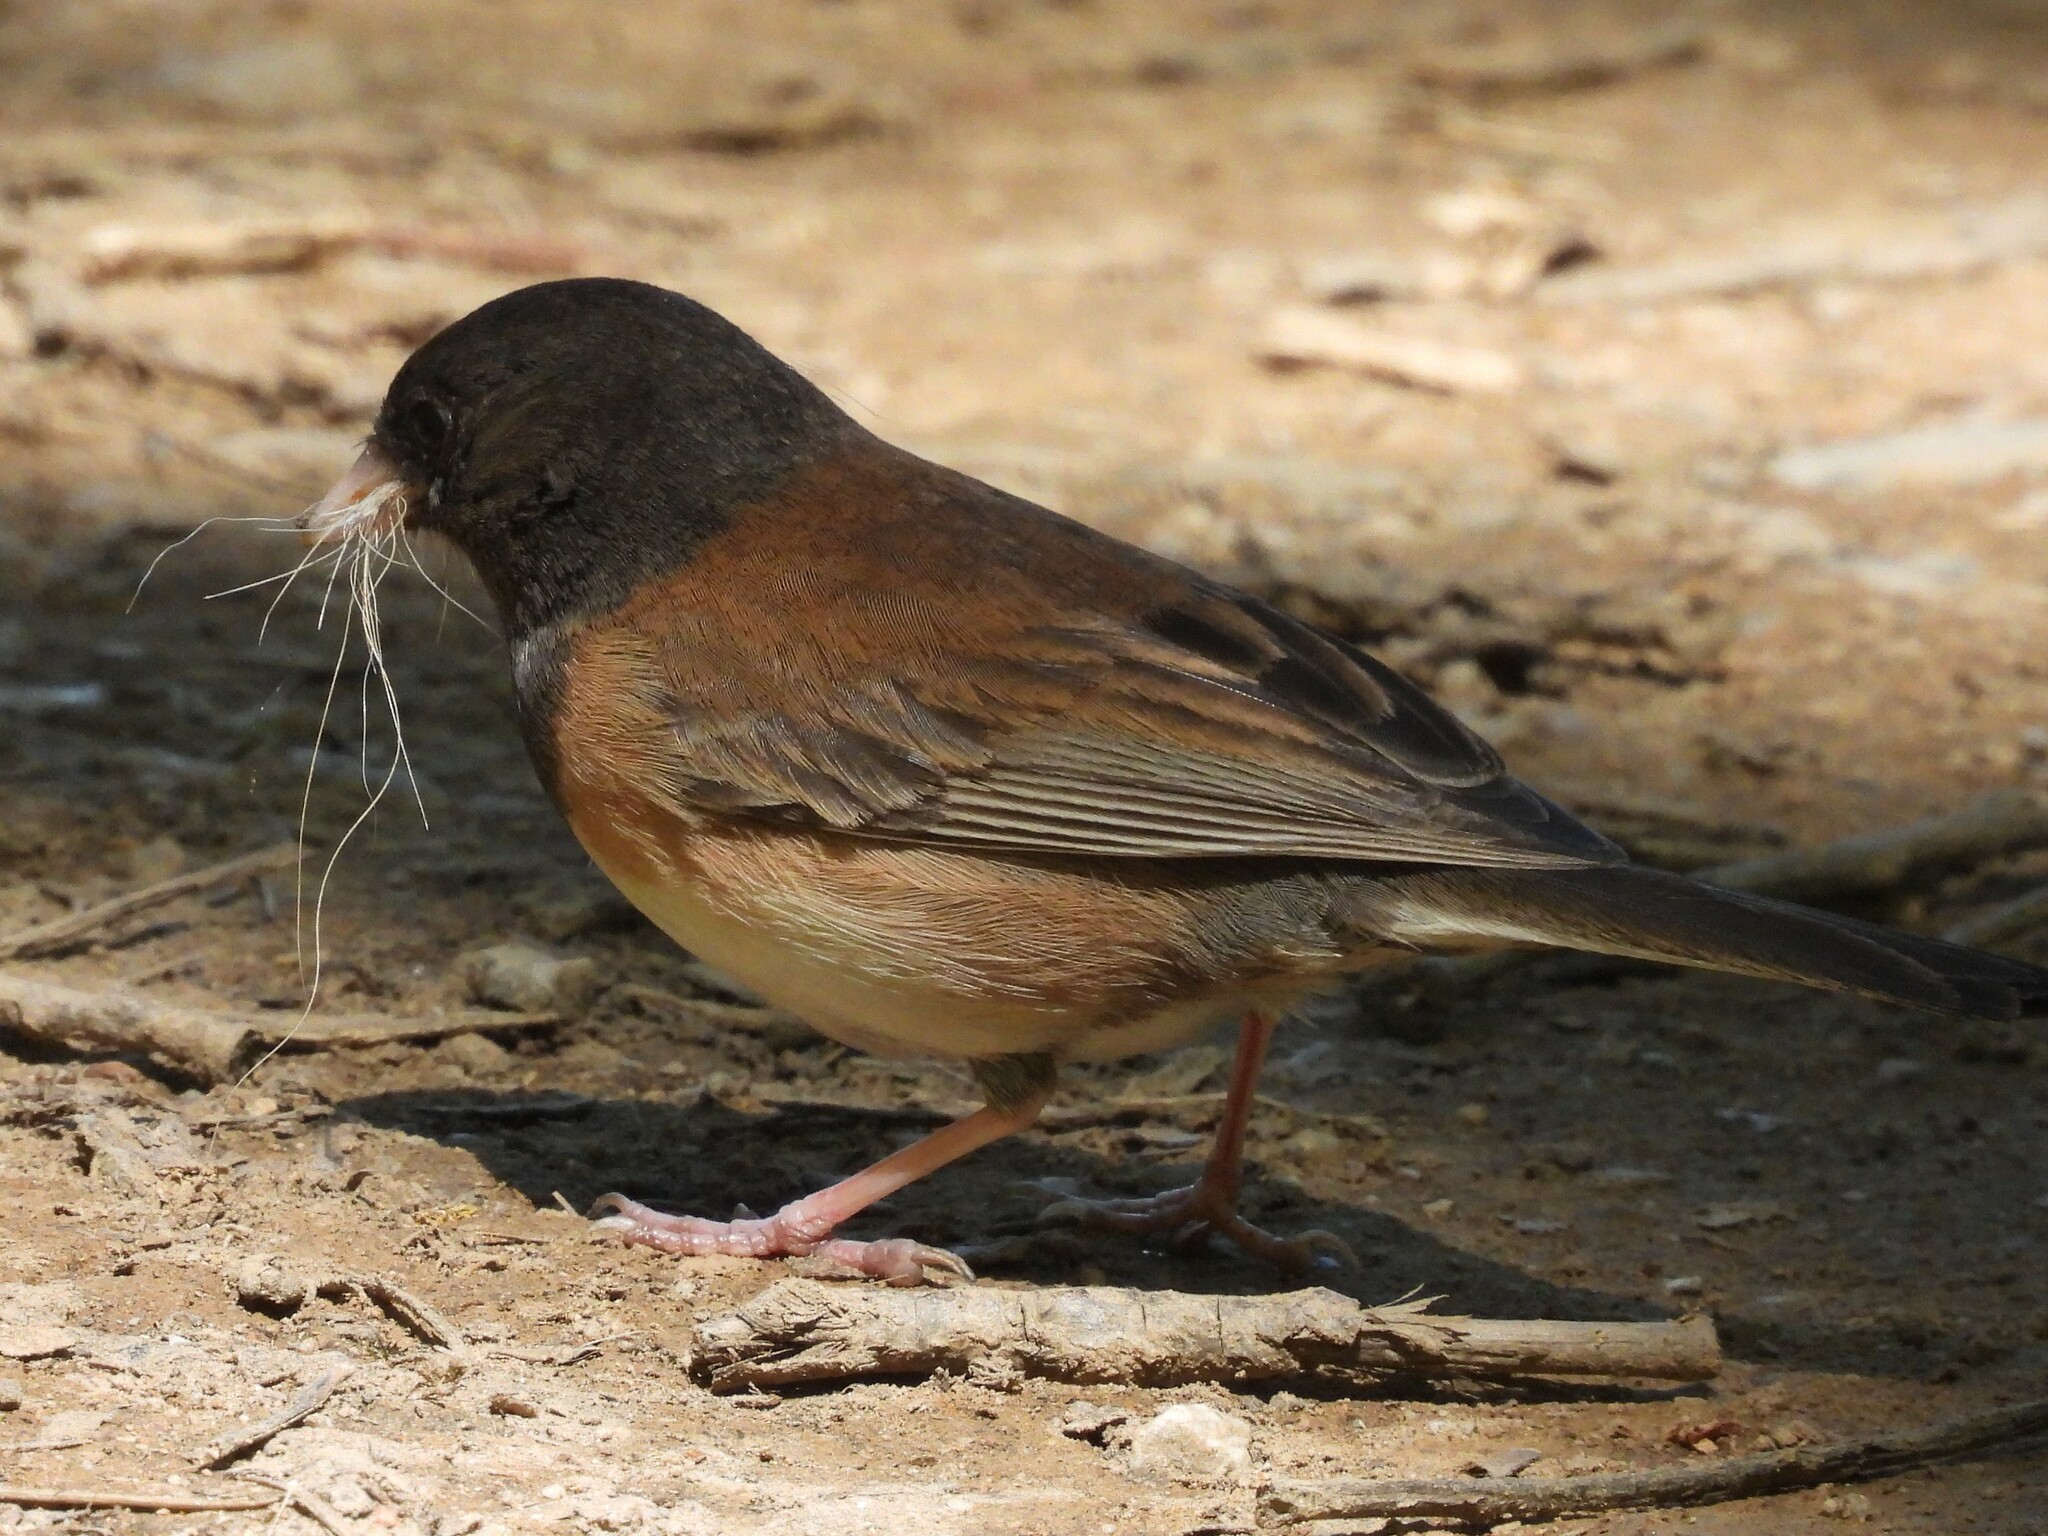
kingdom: Animalia
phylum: Chordata
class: Aves
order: Passeriformes
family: Passerellidae
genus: Junco
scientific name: Junco hyemalis
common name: Dark-eyed junco
